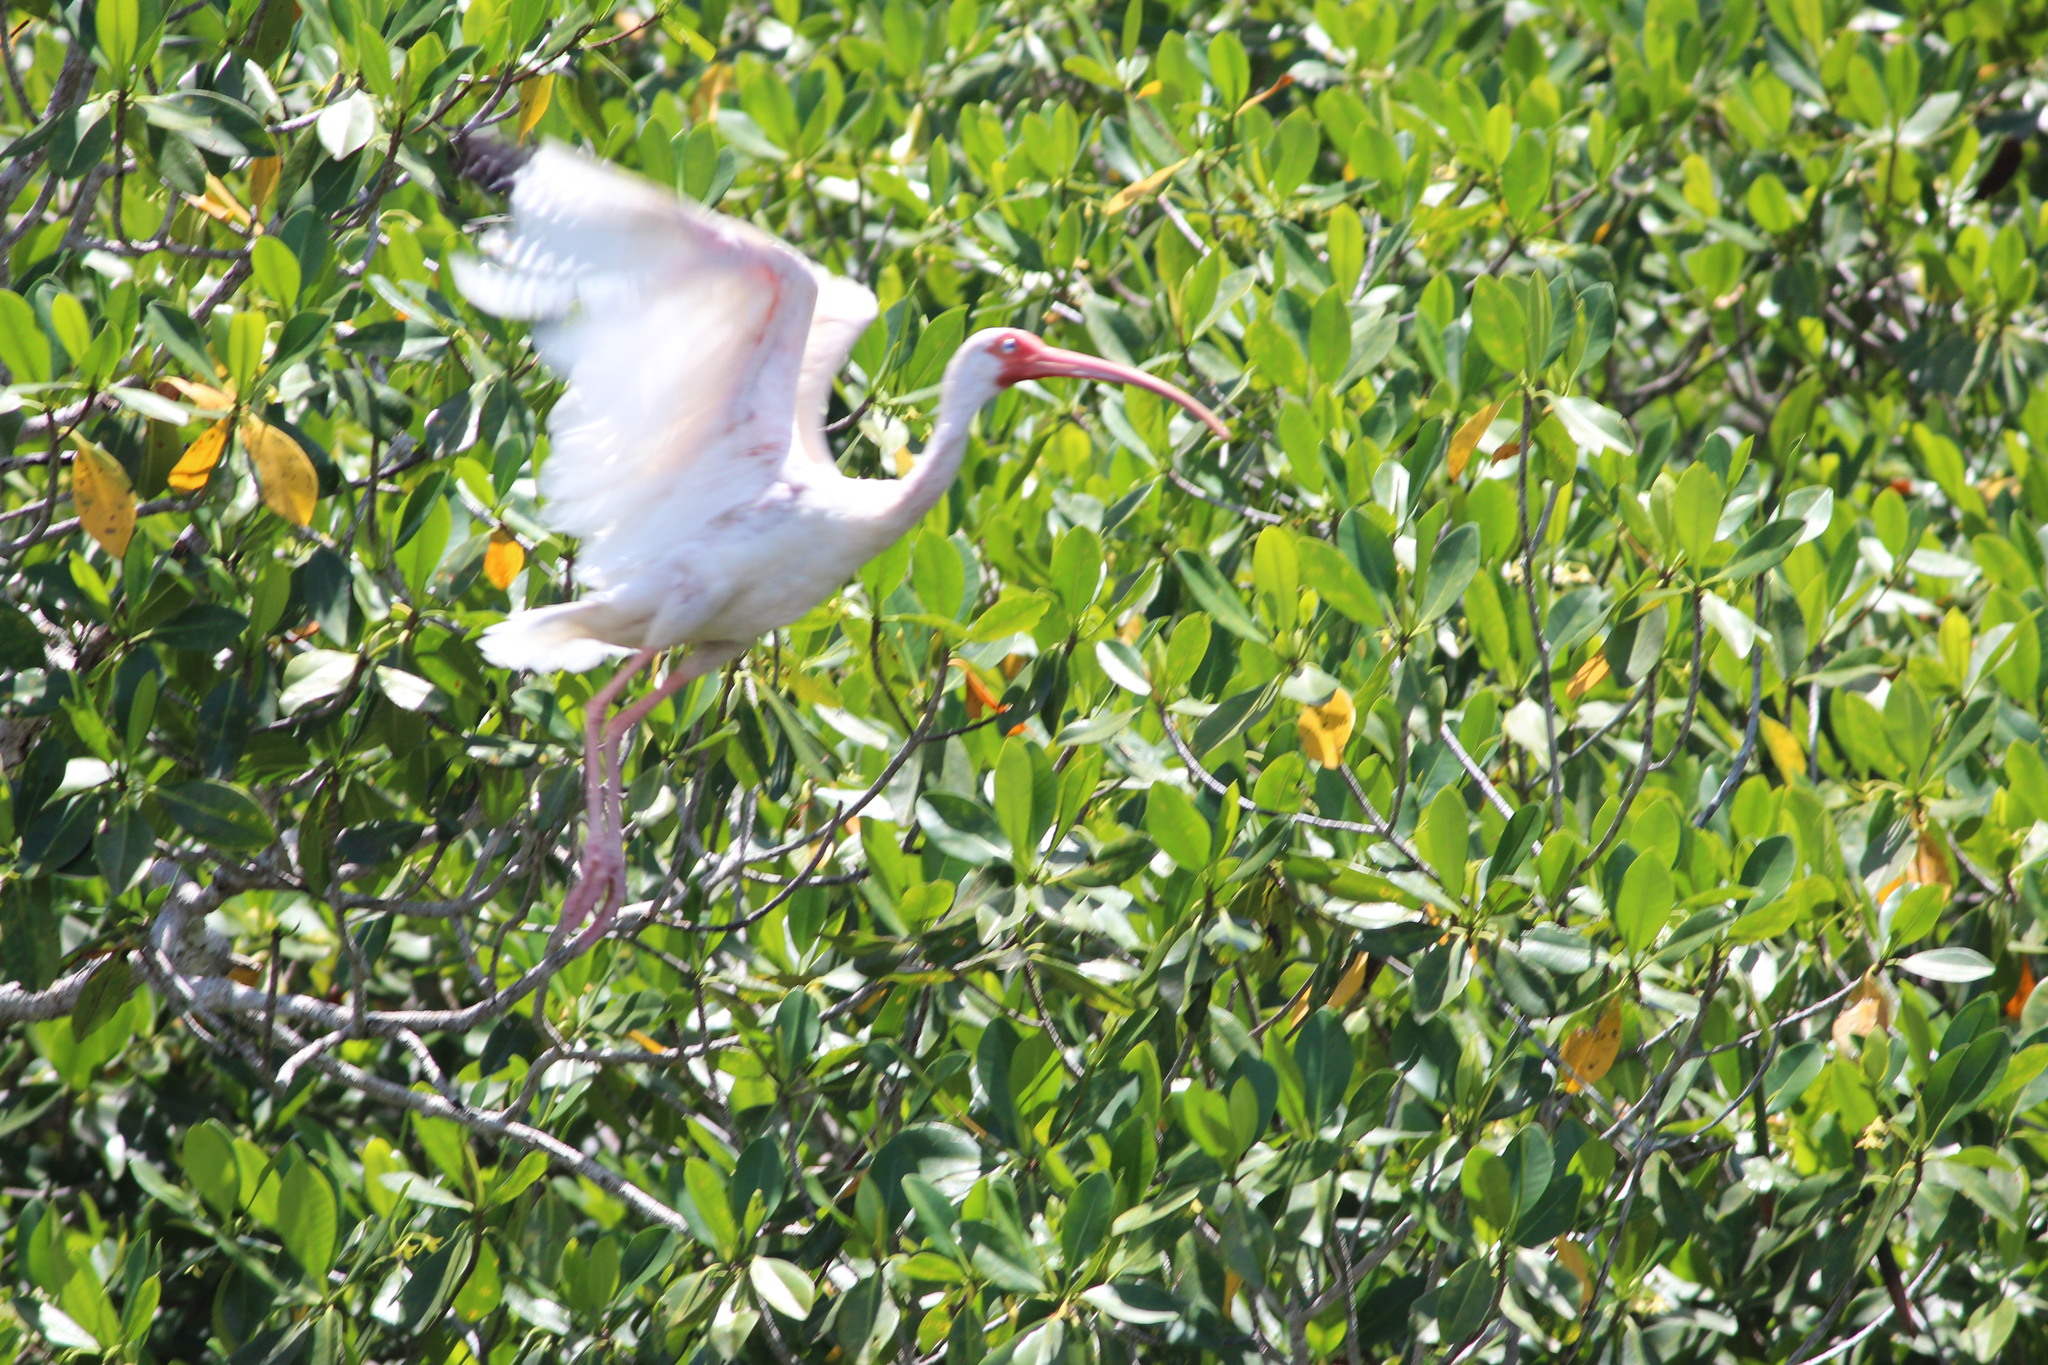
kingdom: Animalia
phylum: Chordata
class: Aves
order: Pelecaniformes
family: Threskiornithidae
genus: Eudocimus
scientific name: Eudocimus albus
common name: White ibis
